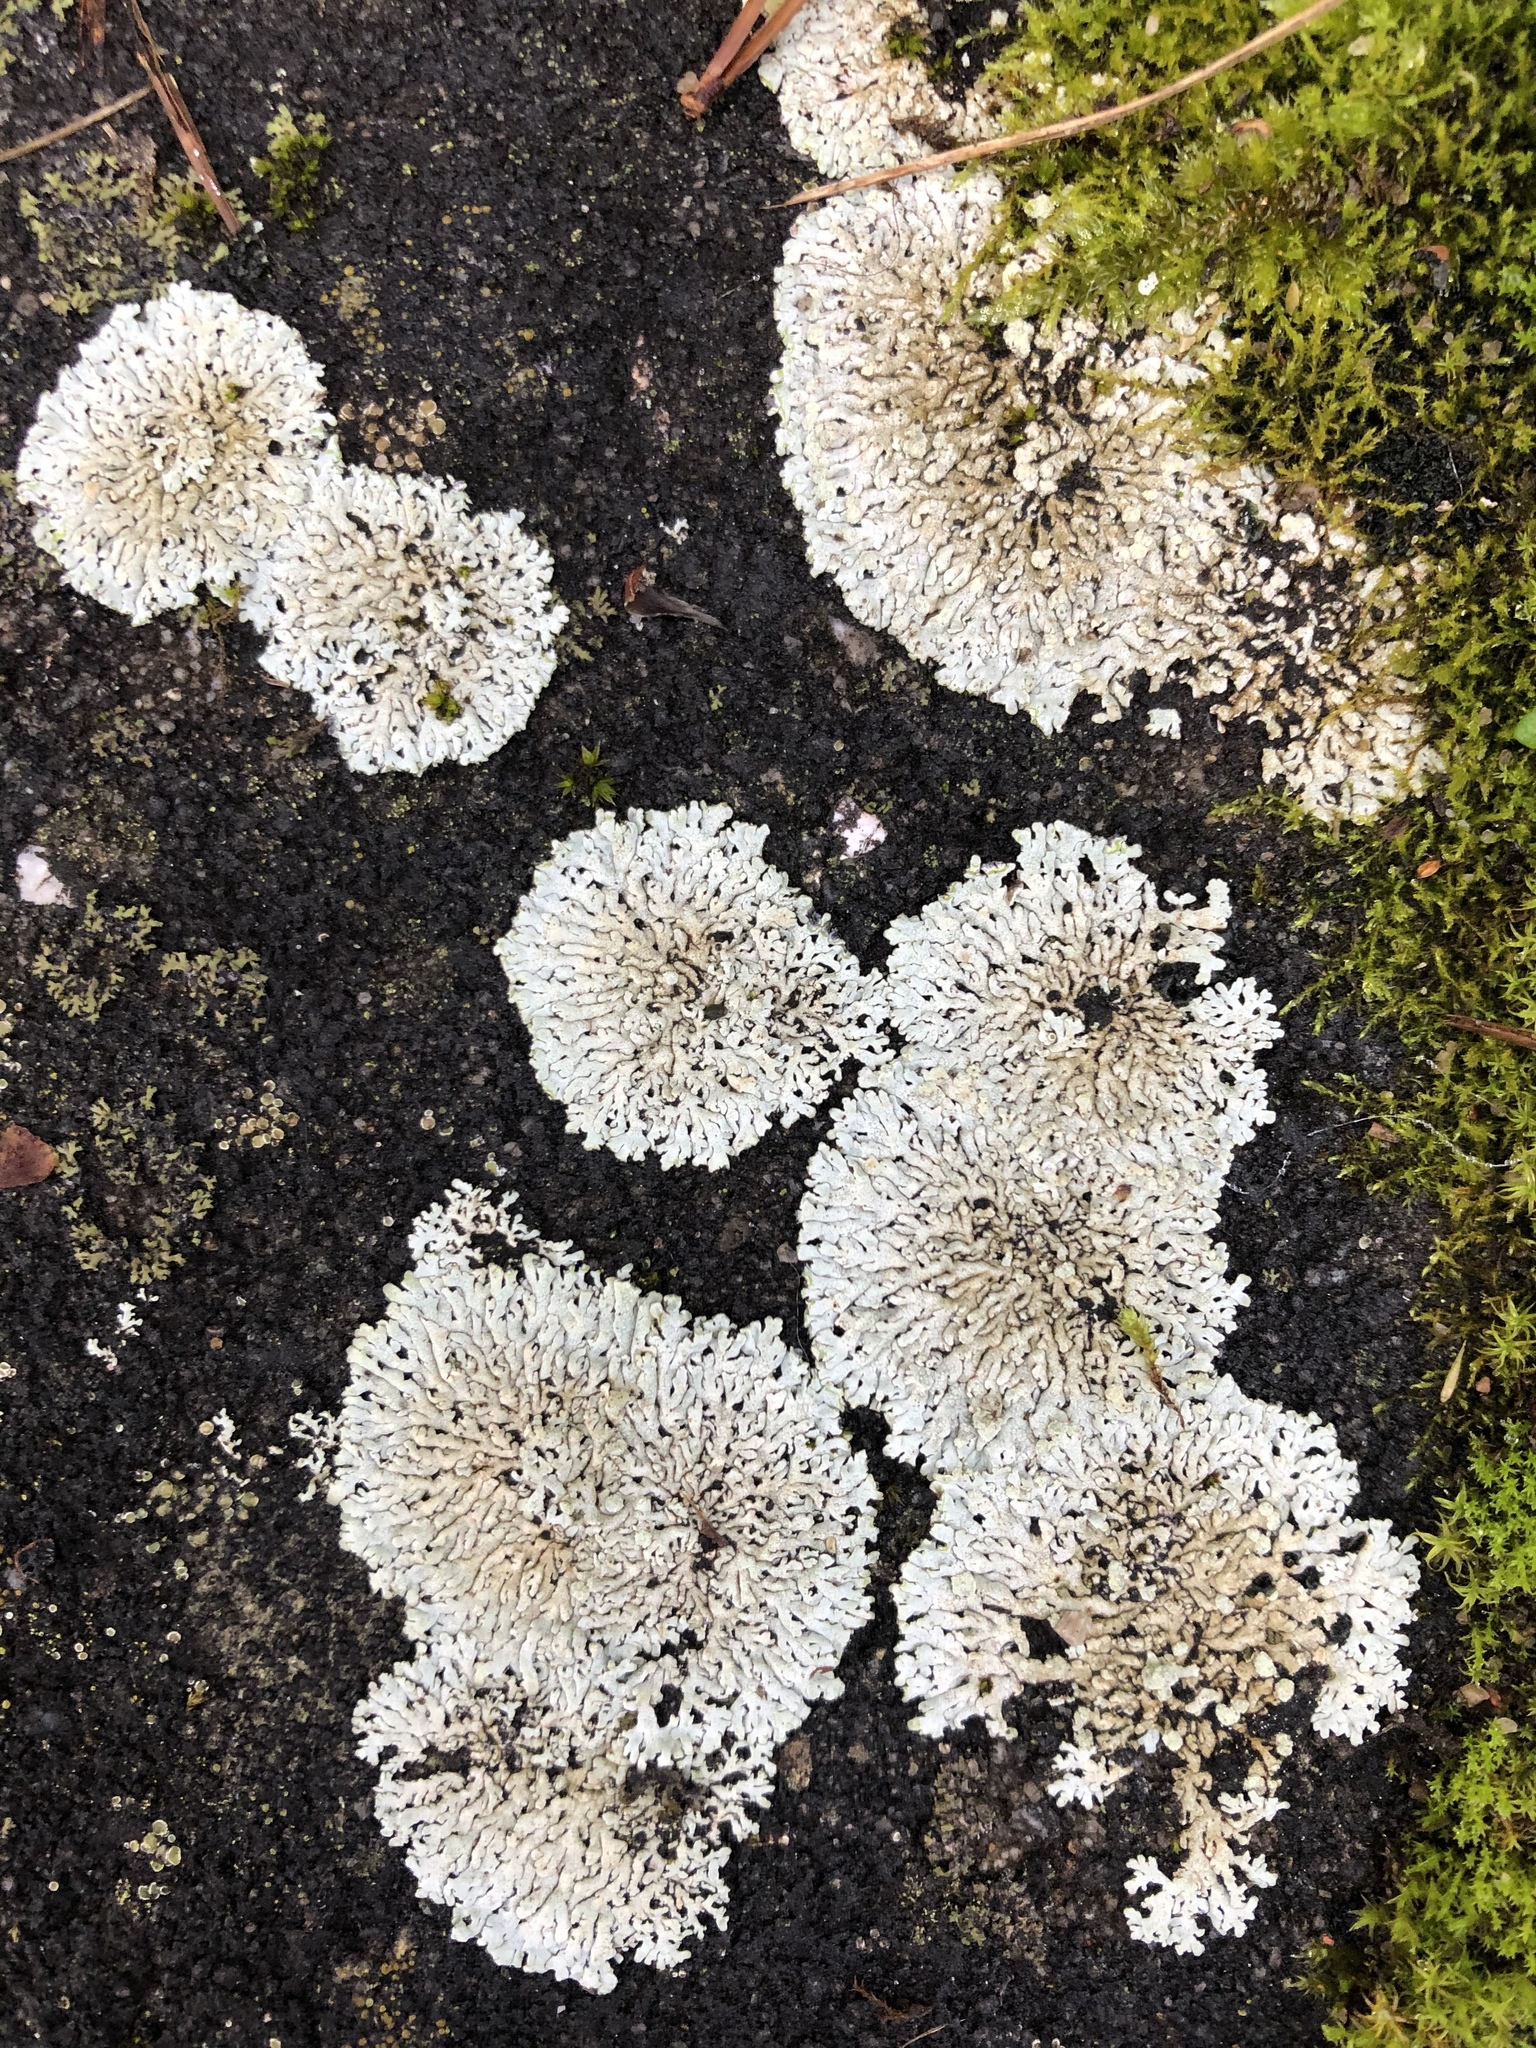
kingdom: Fungi
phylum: Ascomycota
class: Lecanoromycetes
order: Caliciales
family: Physciaceae
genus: Physcia
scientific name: Physcia caesia
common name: Blue-gray rosette lichen
